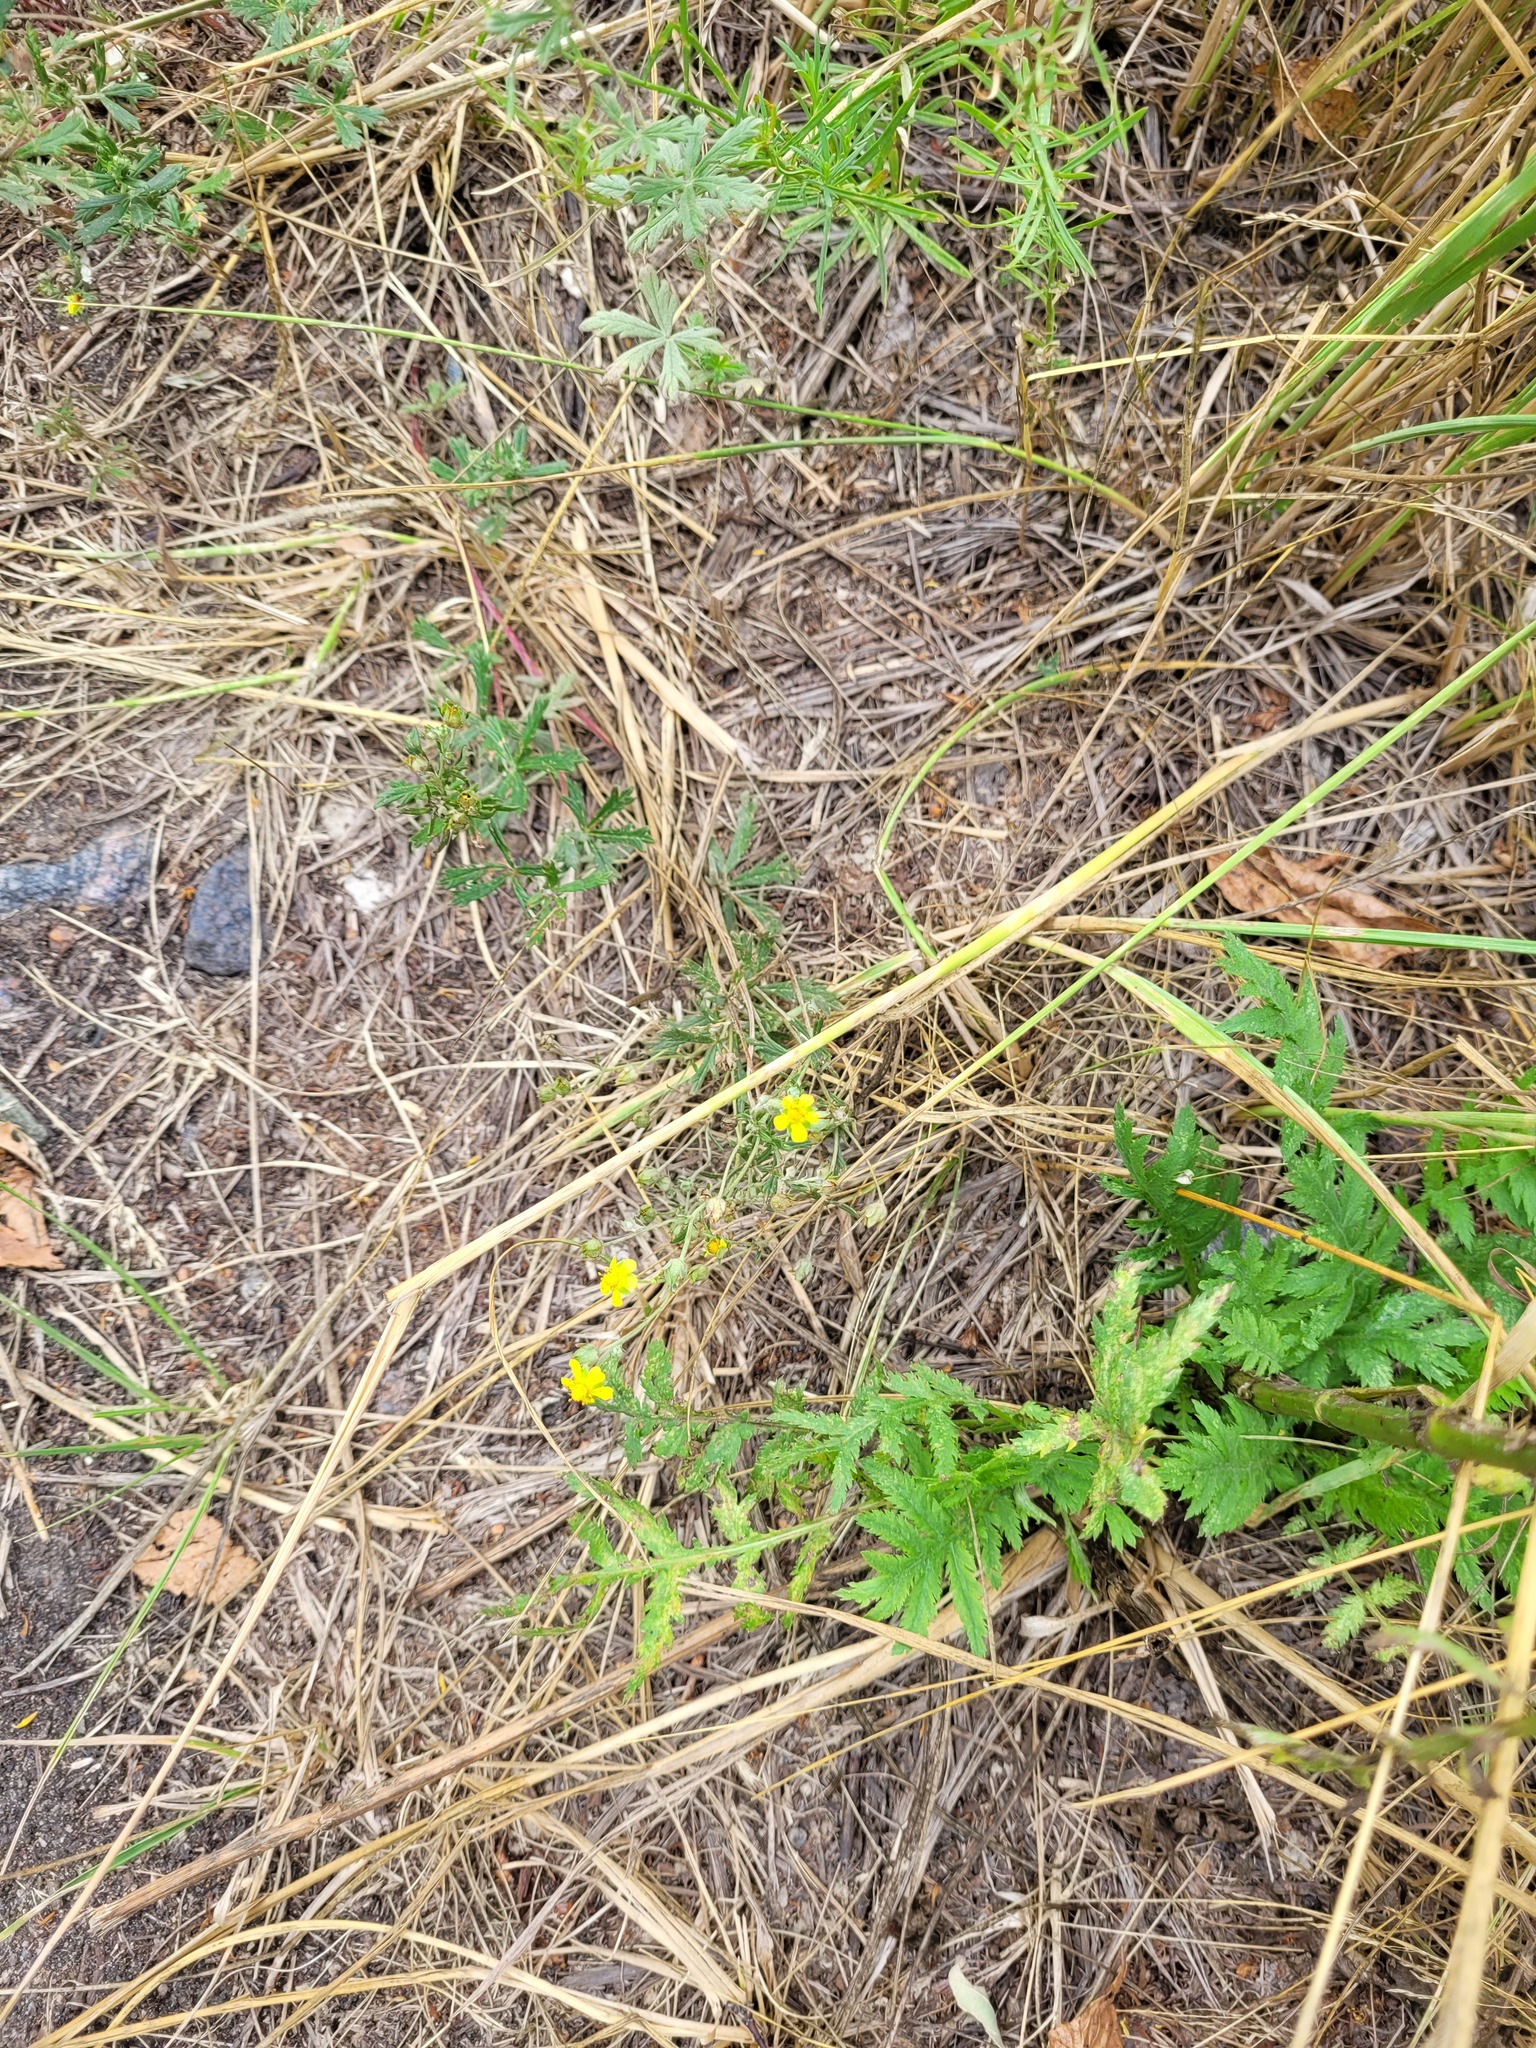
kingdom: Plantae
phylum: Tracheophyta
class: Magnoliopsida
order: Rosales
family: Rosaceae
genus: Potentilla
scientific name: Potentilla argentea
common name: Hoary cinquefoil
